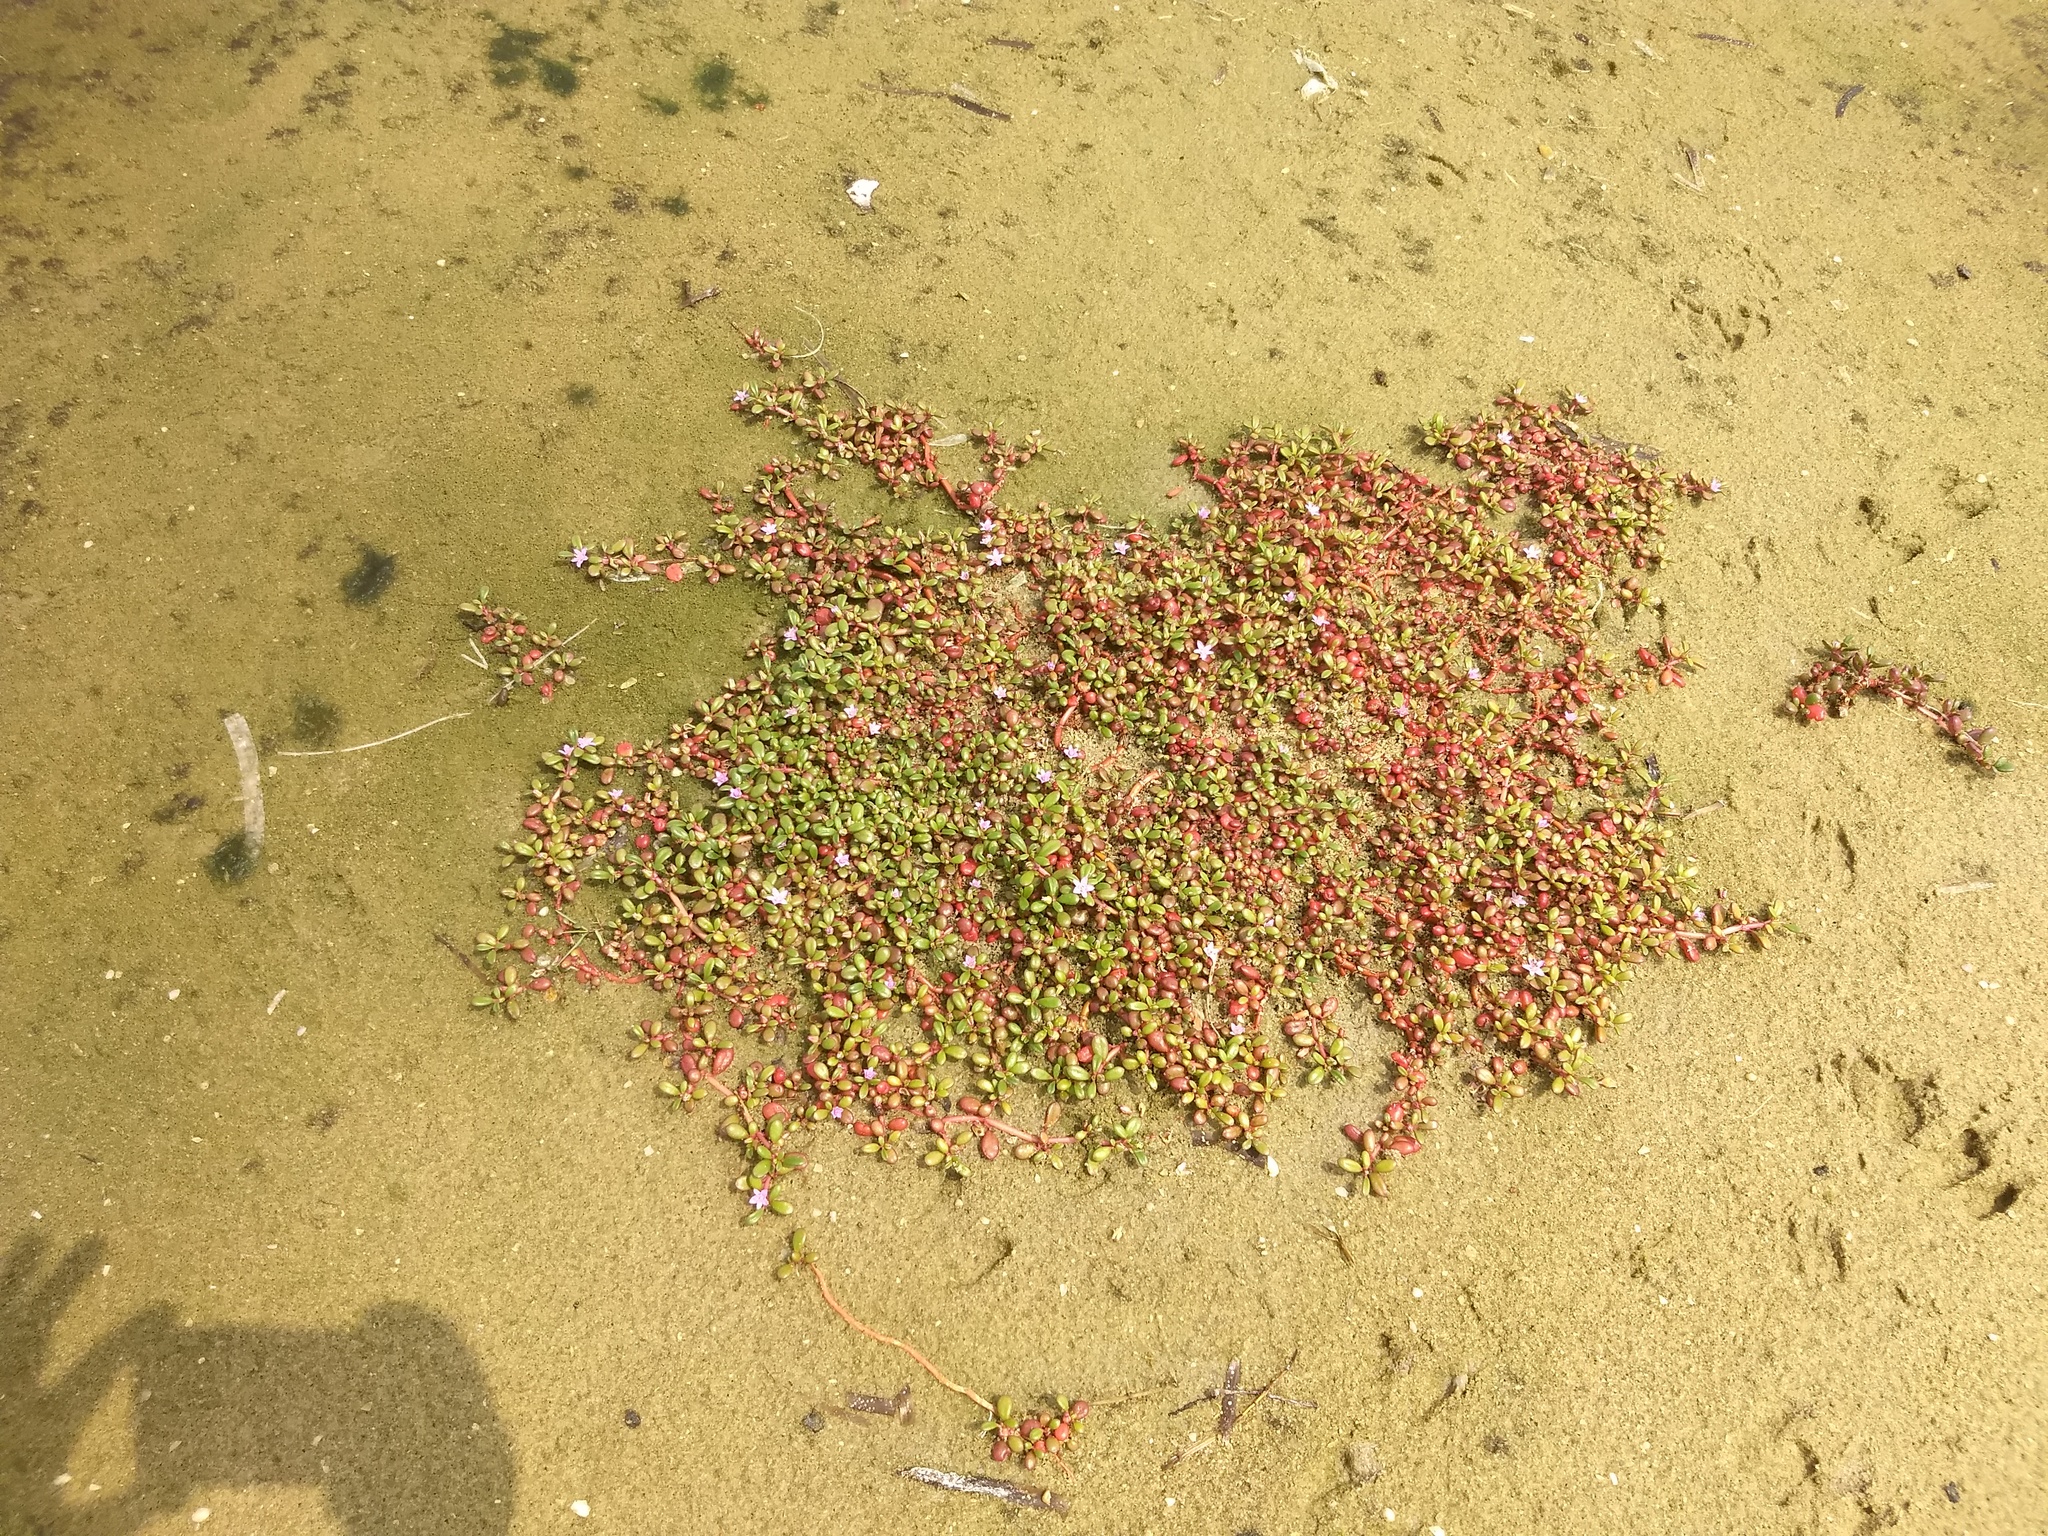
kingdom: Plantae
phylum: Tracheophyta
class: Magnoliopsida
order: Caryophyllales
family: Aizoaceae
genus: Sesuvium
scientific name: Sesuvium portulacastrum
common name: Sea-purslane
